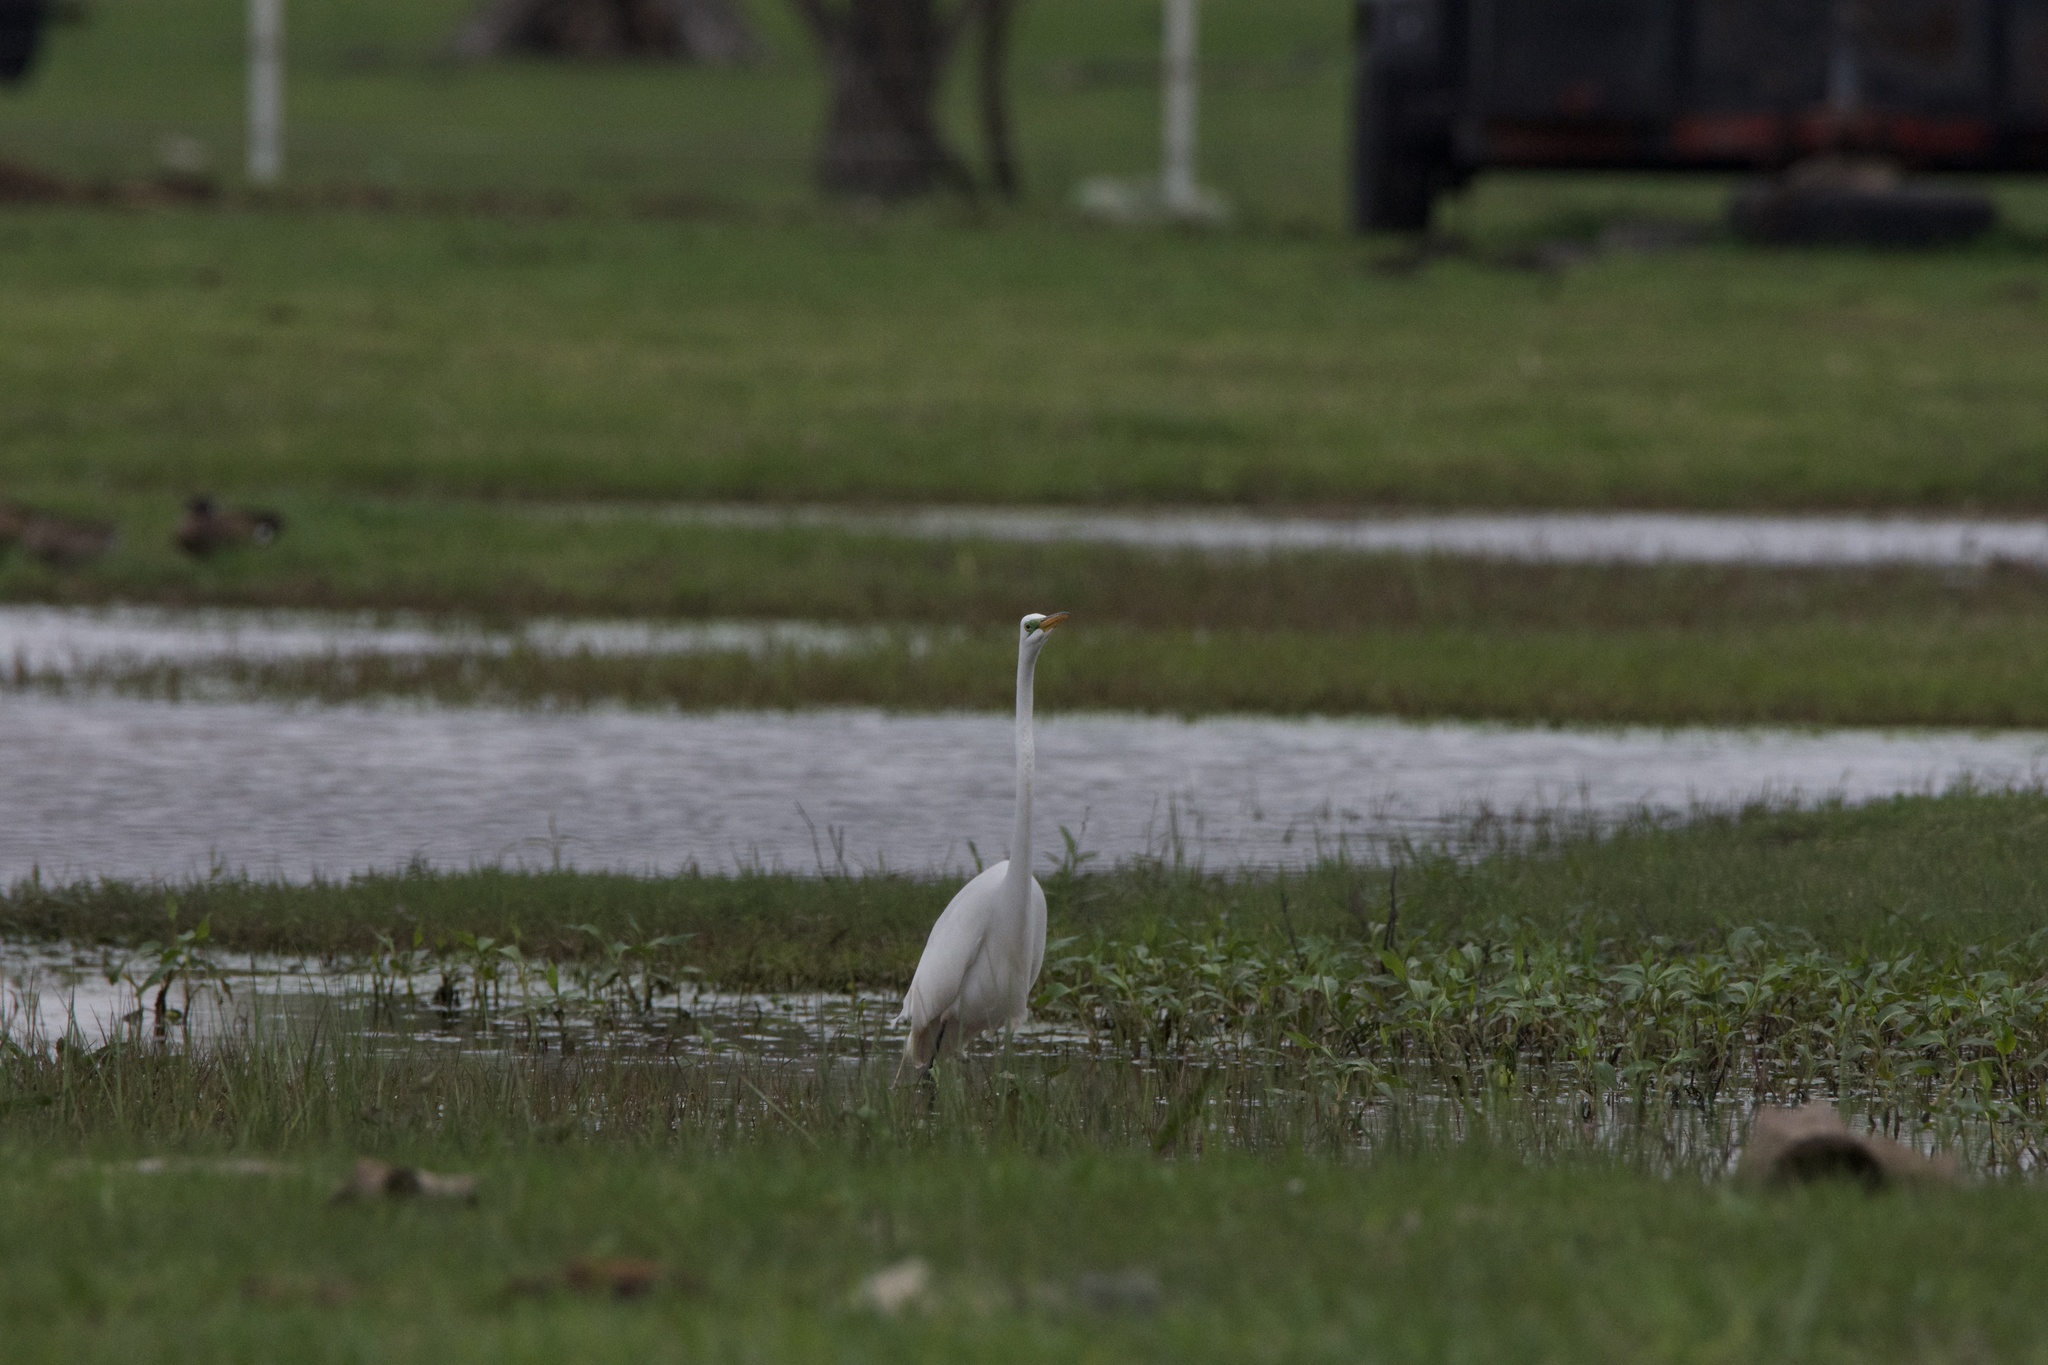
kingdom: Animalia
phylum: Chordata
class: Aves
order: Pelecaniformes
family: Ardeidae
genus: Ardea
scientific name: Ardea alba
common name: Great egret
